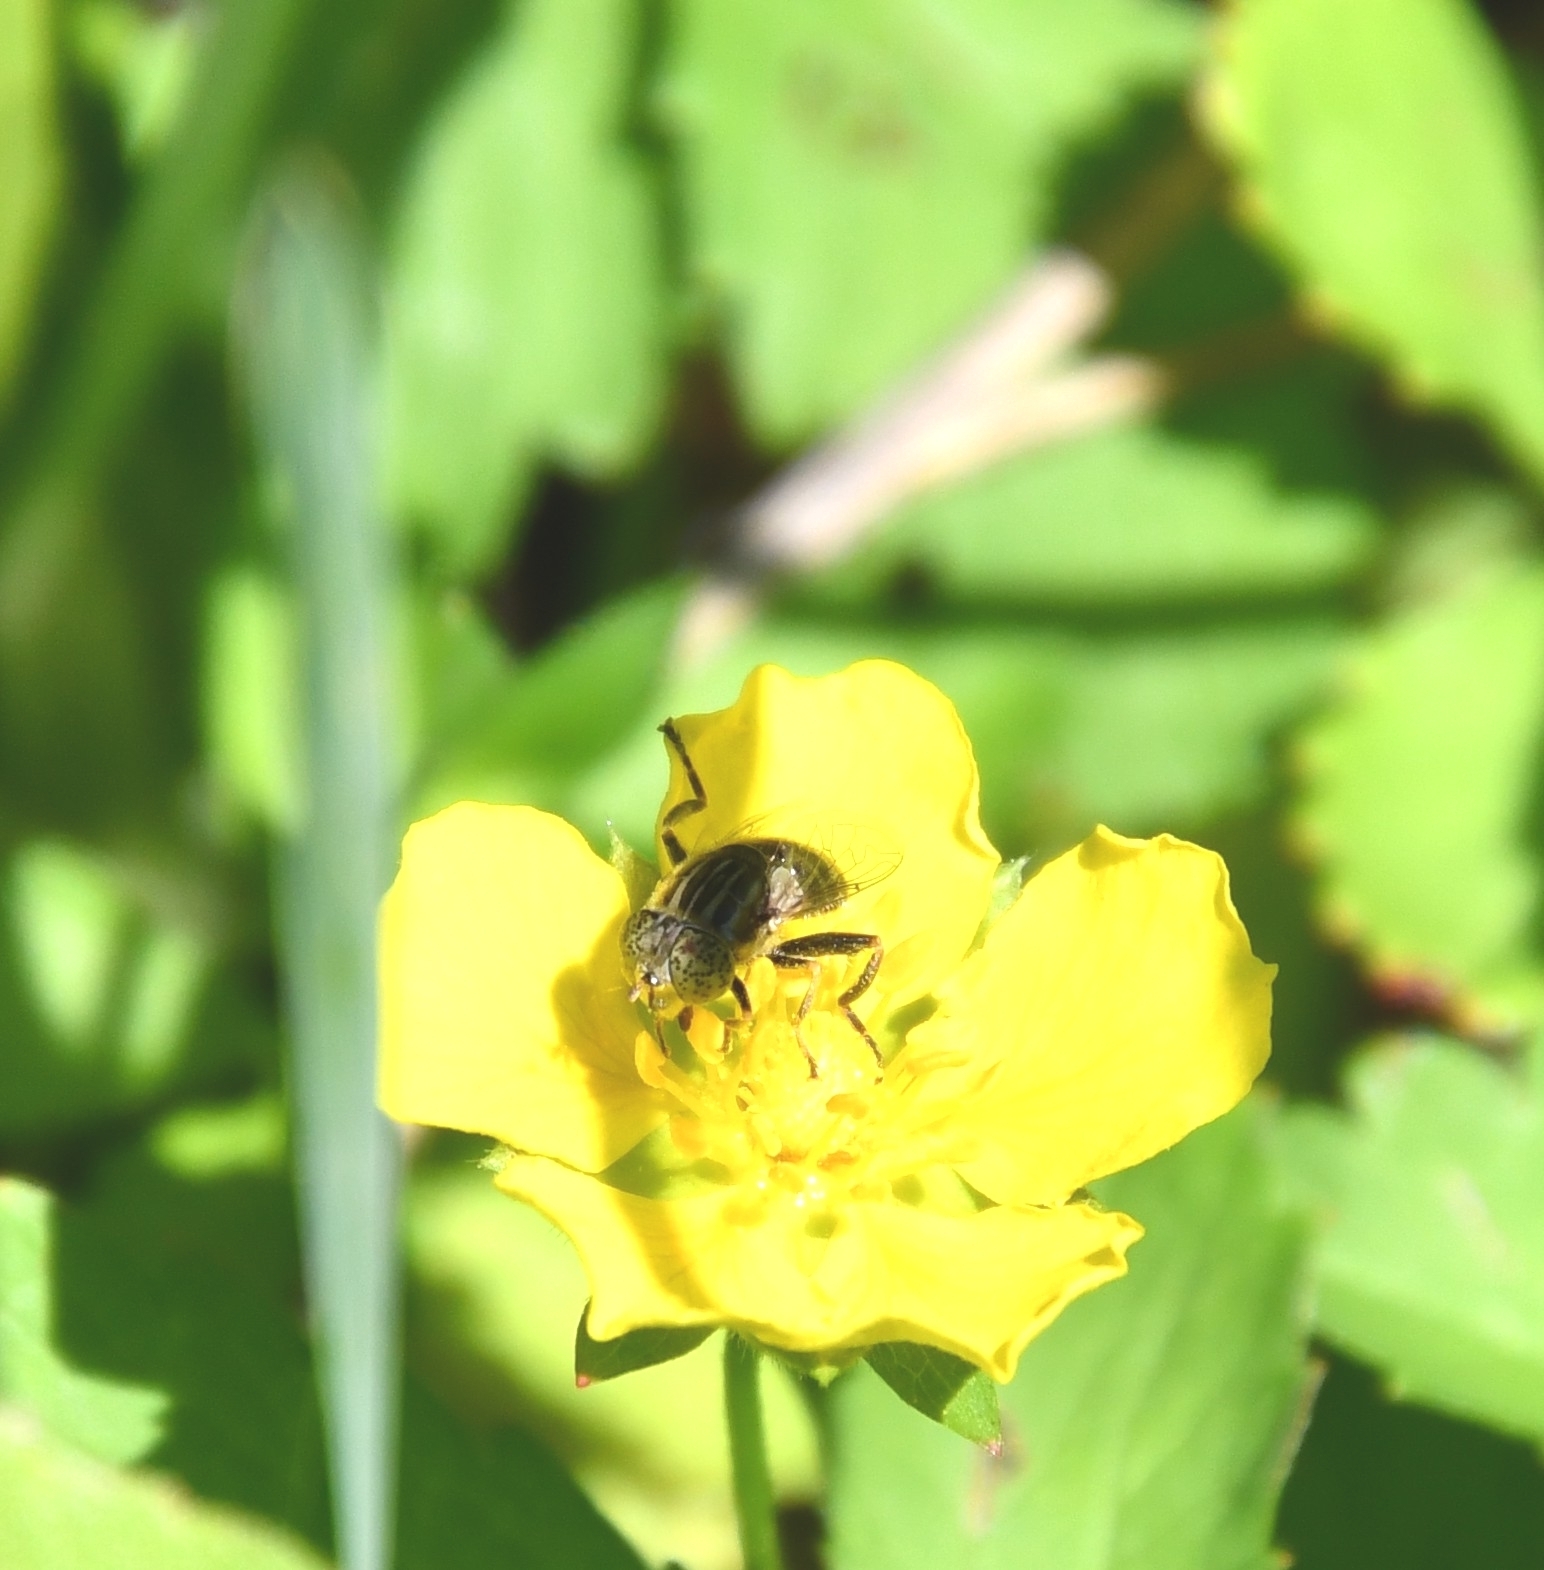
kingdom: Animalia
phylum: Arthropoda
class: Insecta
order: Diptera
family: Syrphidae
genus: Eristalinus
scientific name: Eristalinus aeneus
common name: Syrphid fly
